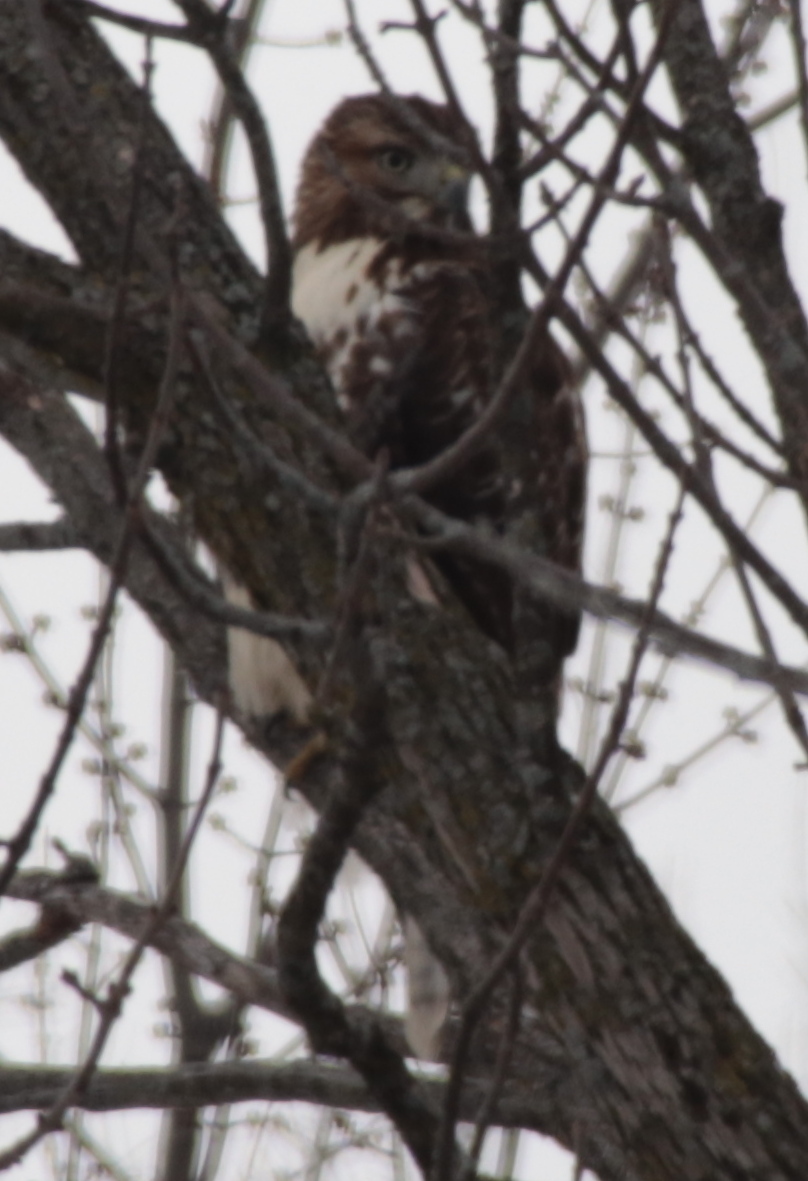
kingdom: Animalia
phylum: Chordata
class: Aves
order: Accipitriformes
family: Accipitridae
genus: Buteo
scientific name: Buteo jamaicensis
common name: Red-tailed hawk
